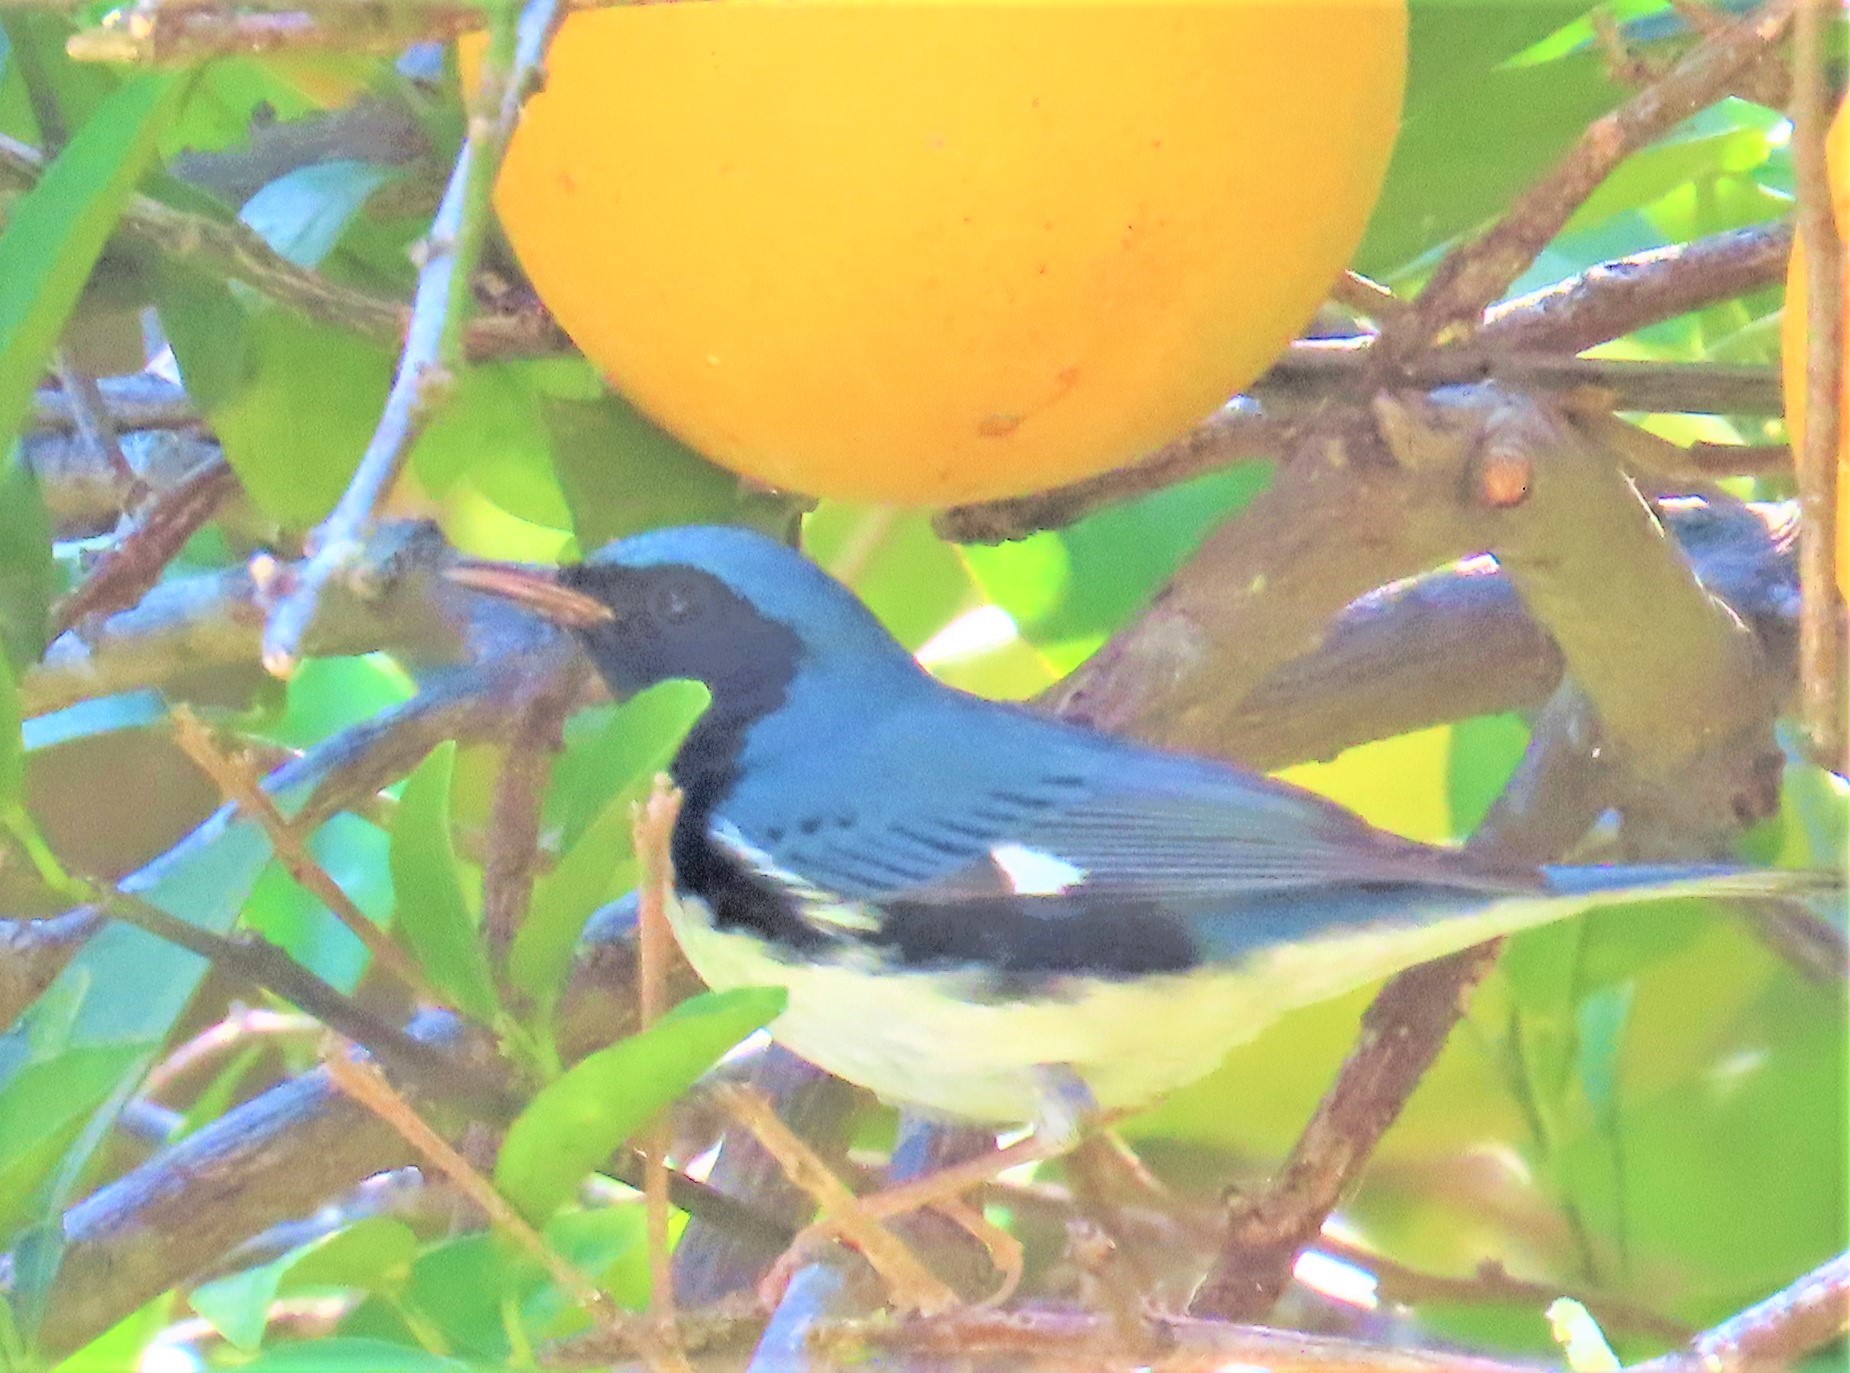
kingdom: Animalia
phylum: Chordata
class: Aves
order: Passeriformes
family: Parulidae
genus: Setophaga
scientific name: Setophaga caerulescens
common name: Black-throated blue warbler
